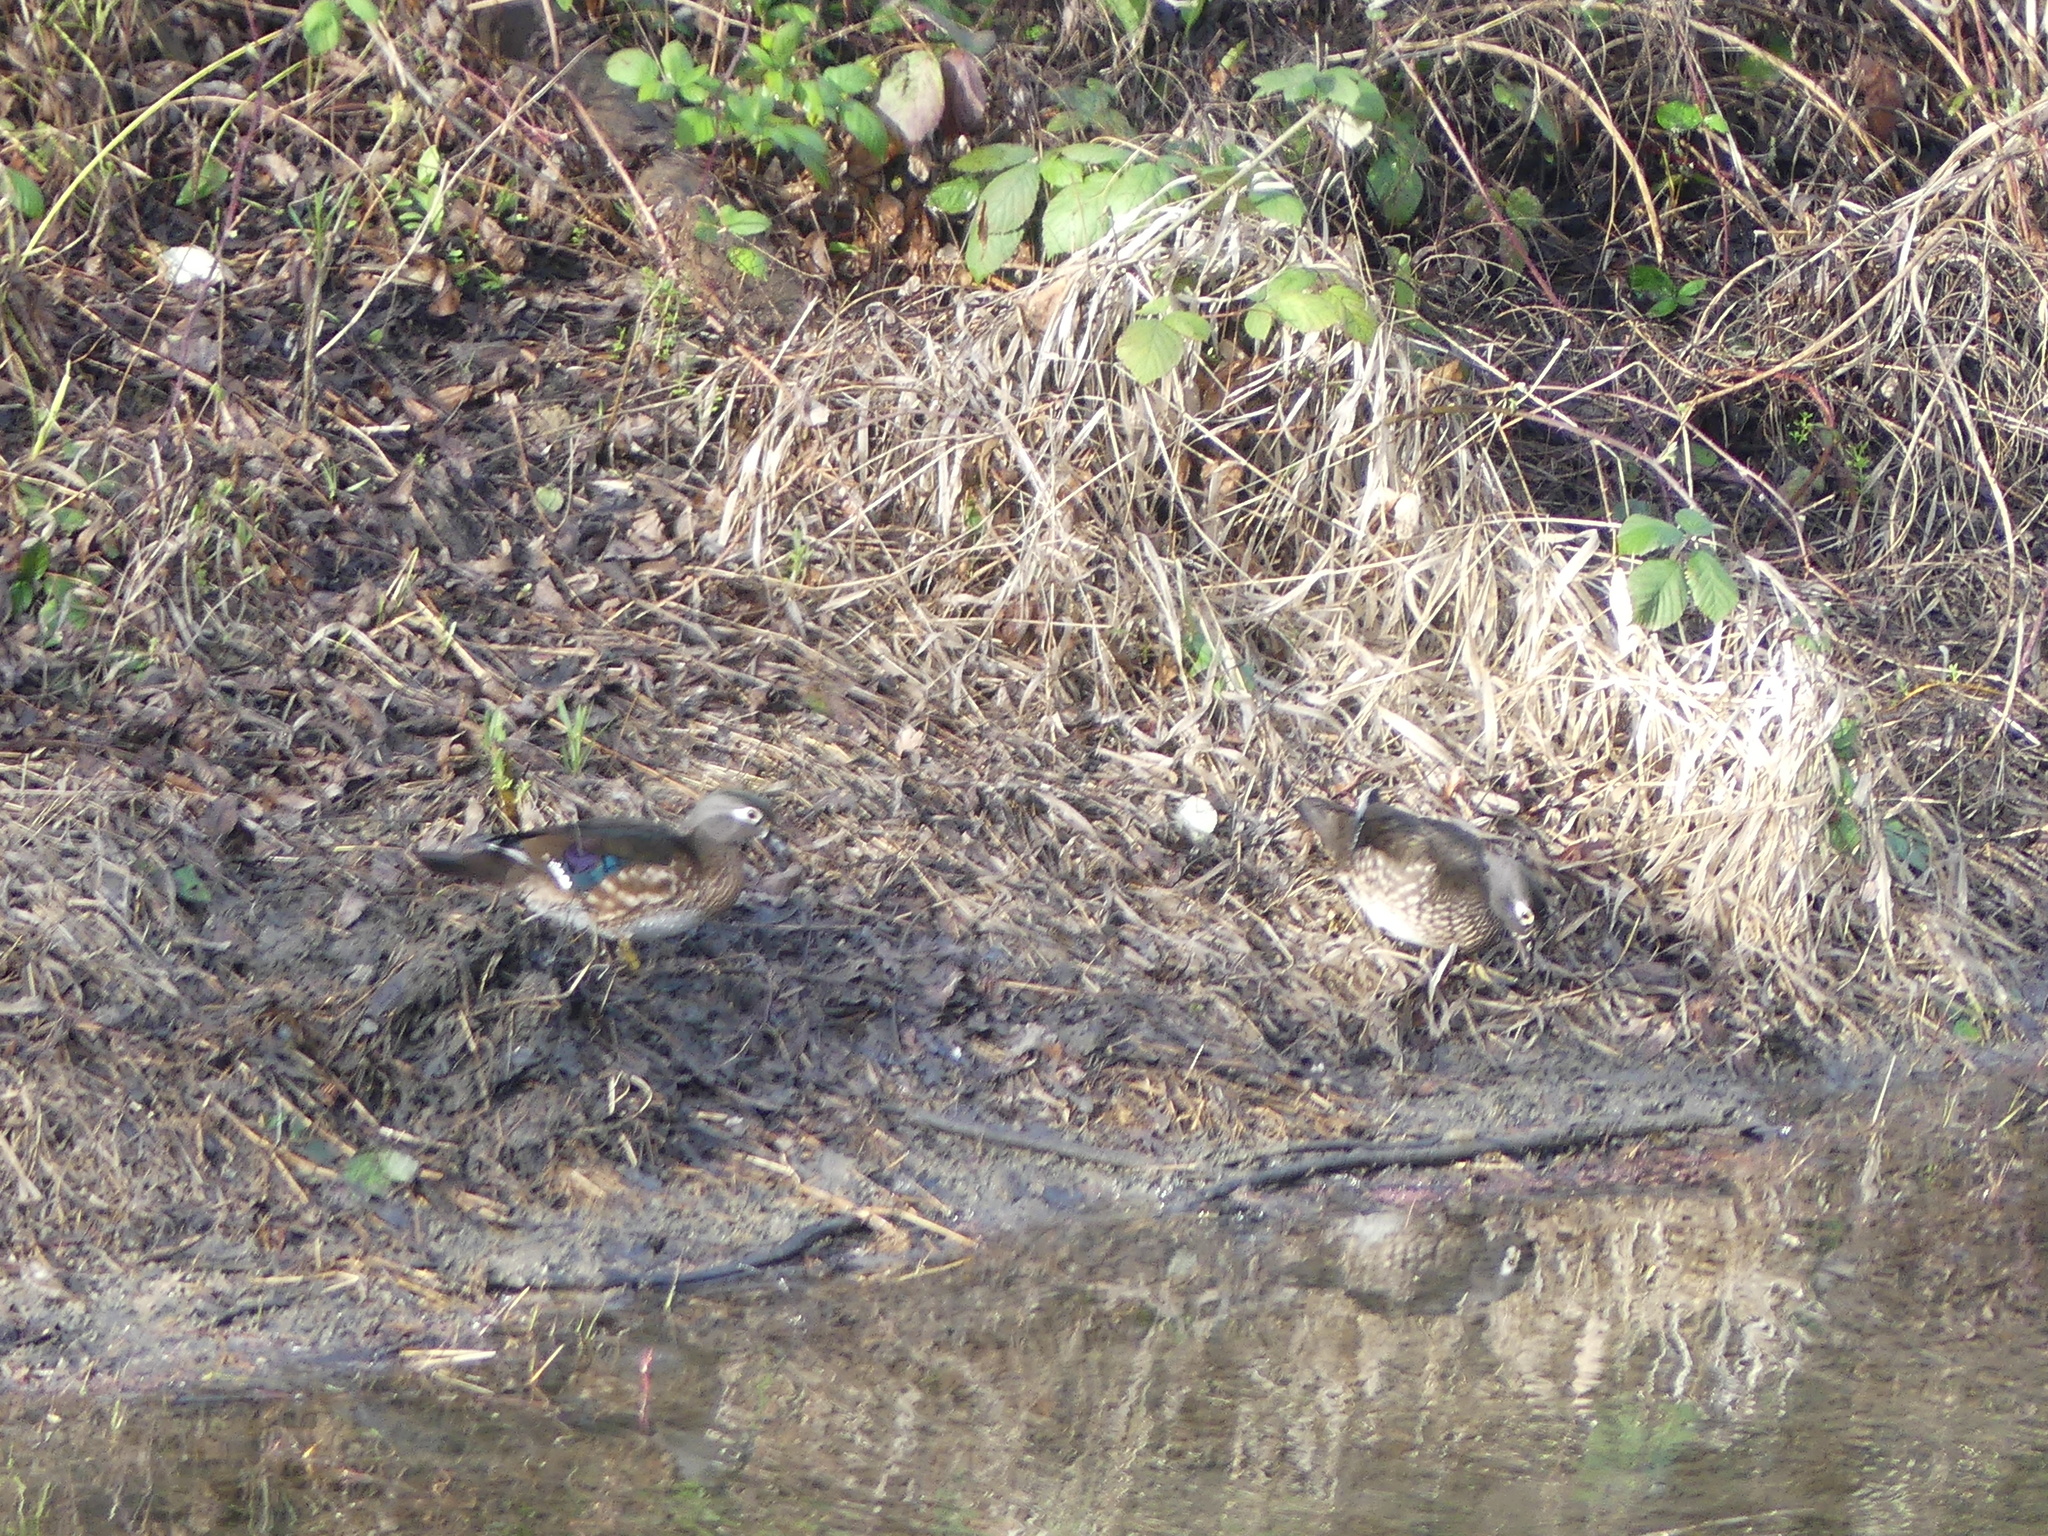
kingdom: Animalia
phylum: Chordata
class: Aves
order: Anseriformes
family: Anatidae
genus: Aix
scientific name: Aix sponsa
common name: Wood duck
